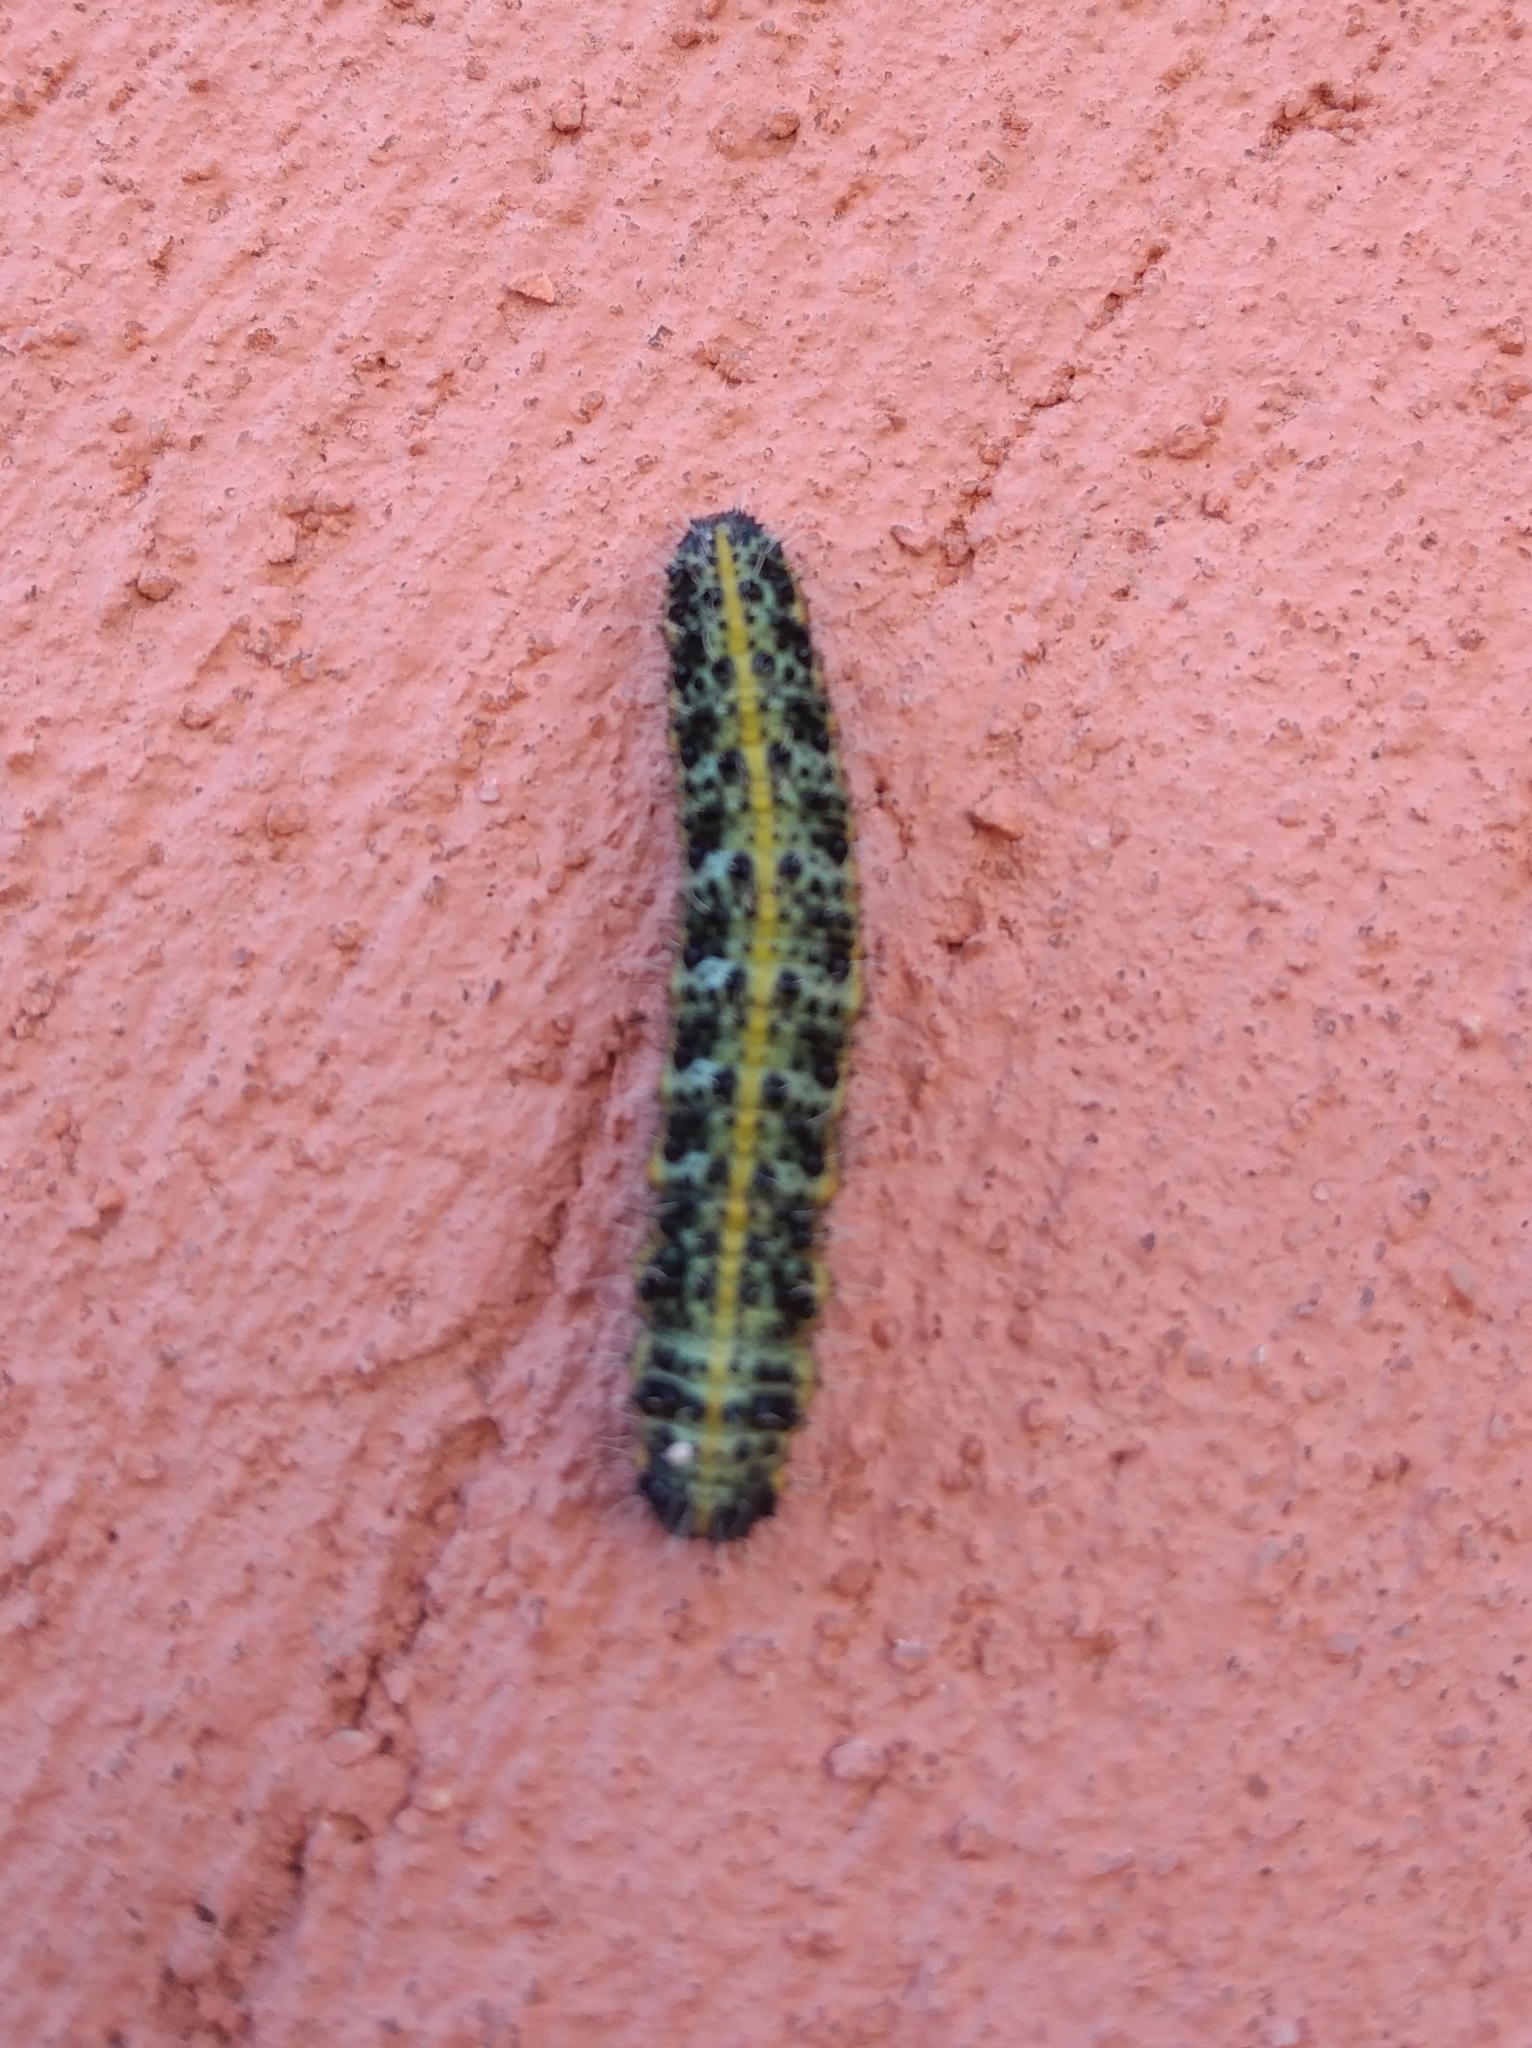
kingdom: Animalia
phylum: Arthropoda
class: Insecta
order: Lepidoptera
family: Pieridae
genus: Pieris
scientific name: Pieris brassicae
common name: Large white
